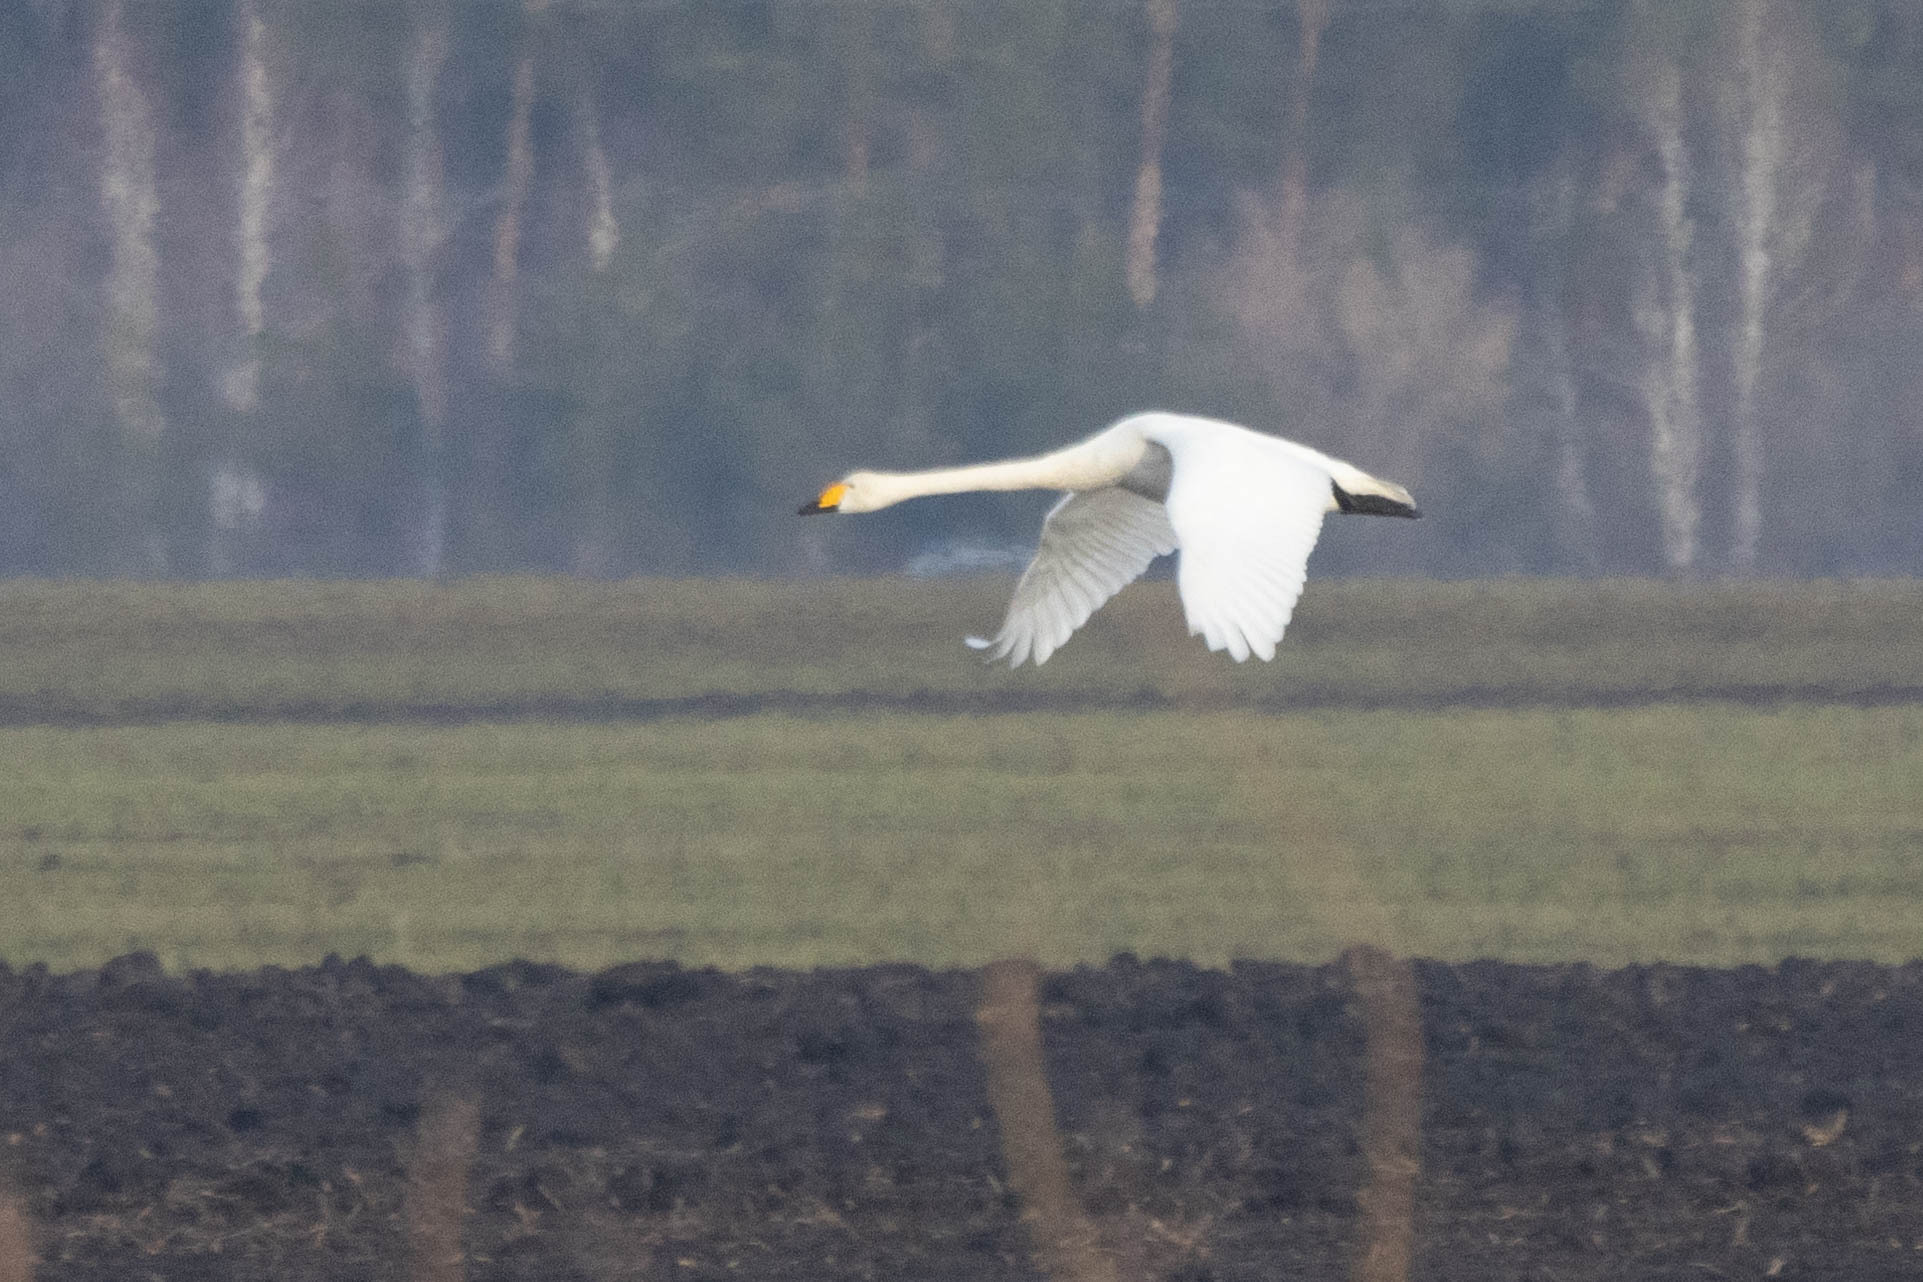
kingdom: Animalia
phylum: Chordata
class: Aves
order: Anseriformes
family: Anatidae
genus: Cygnus
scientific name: Cygnus cygnus
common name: Whooper swan
